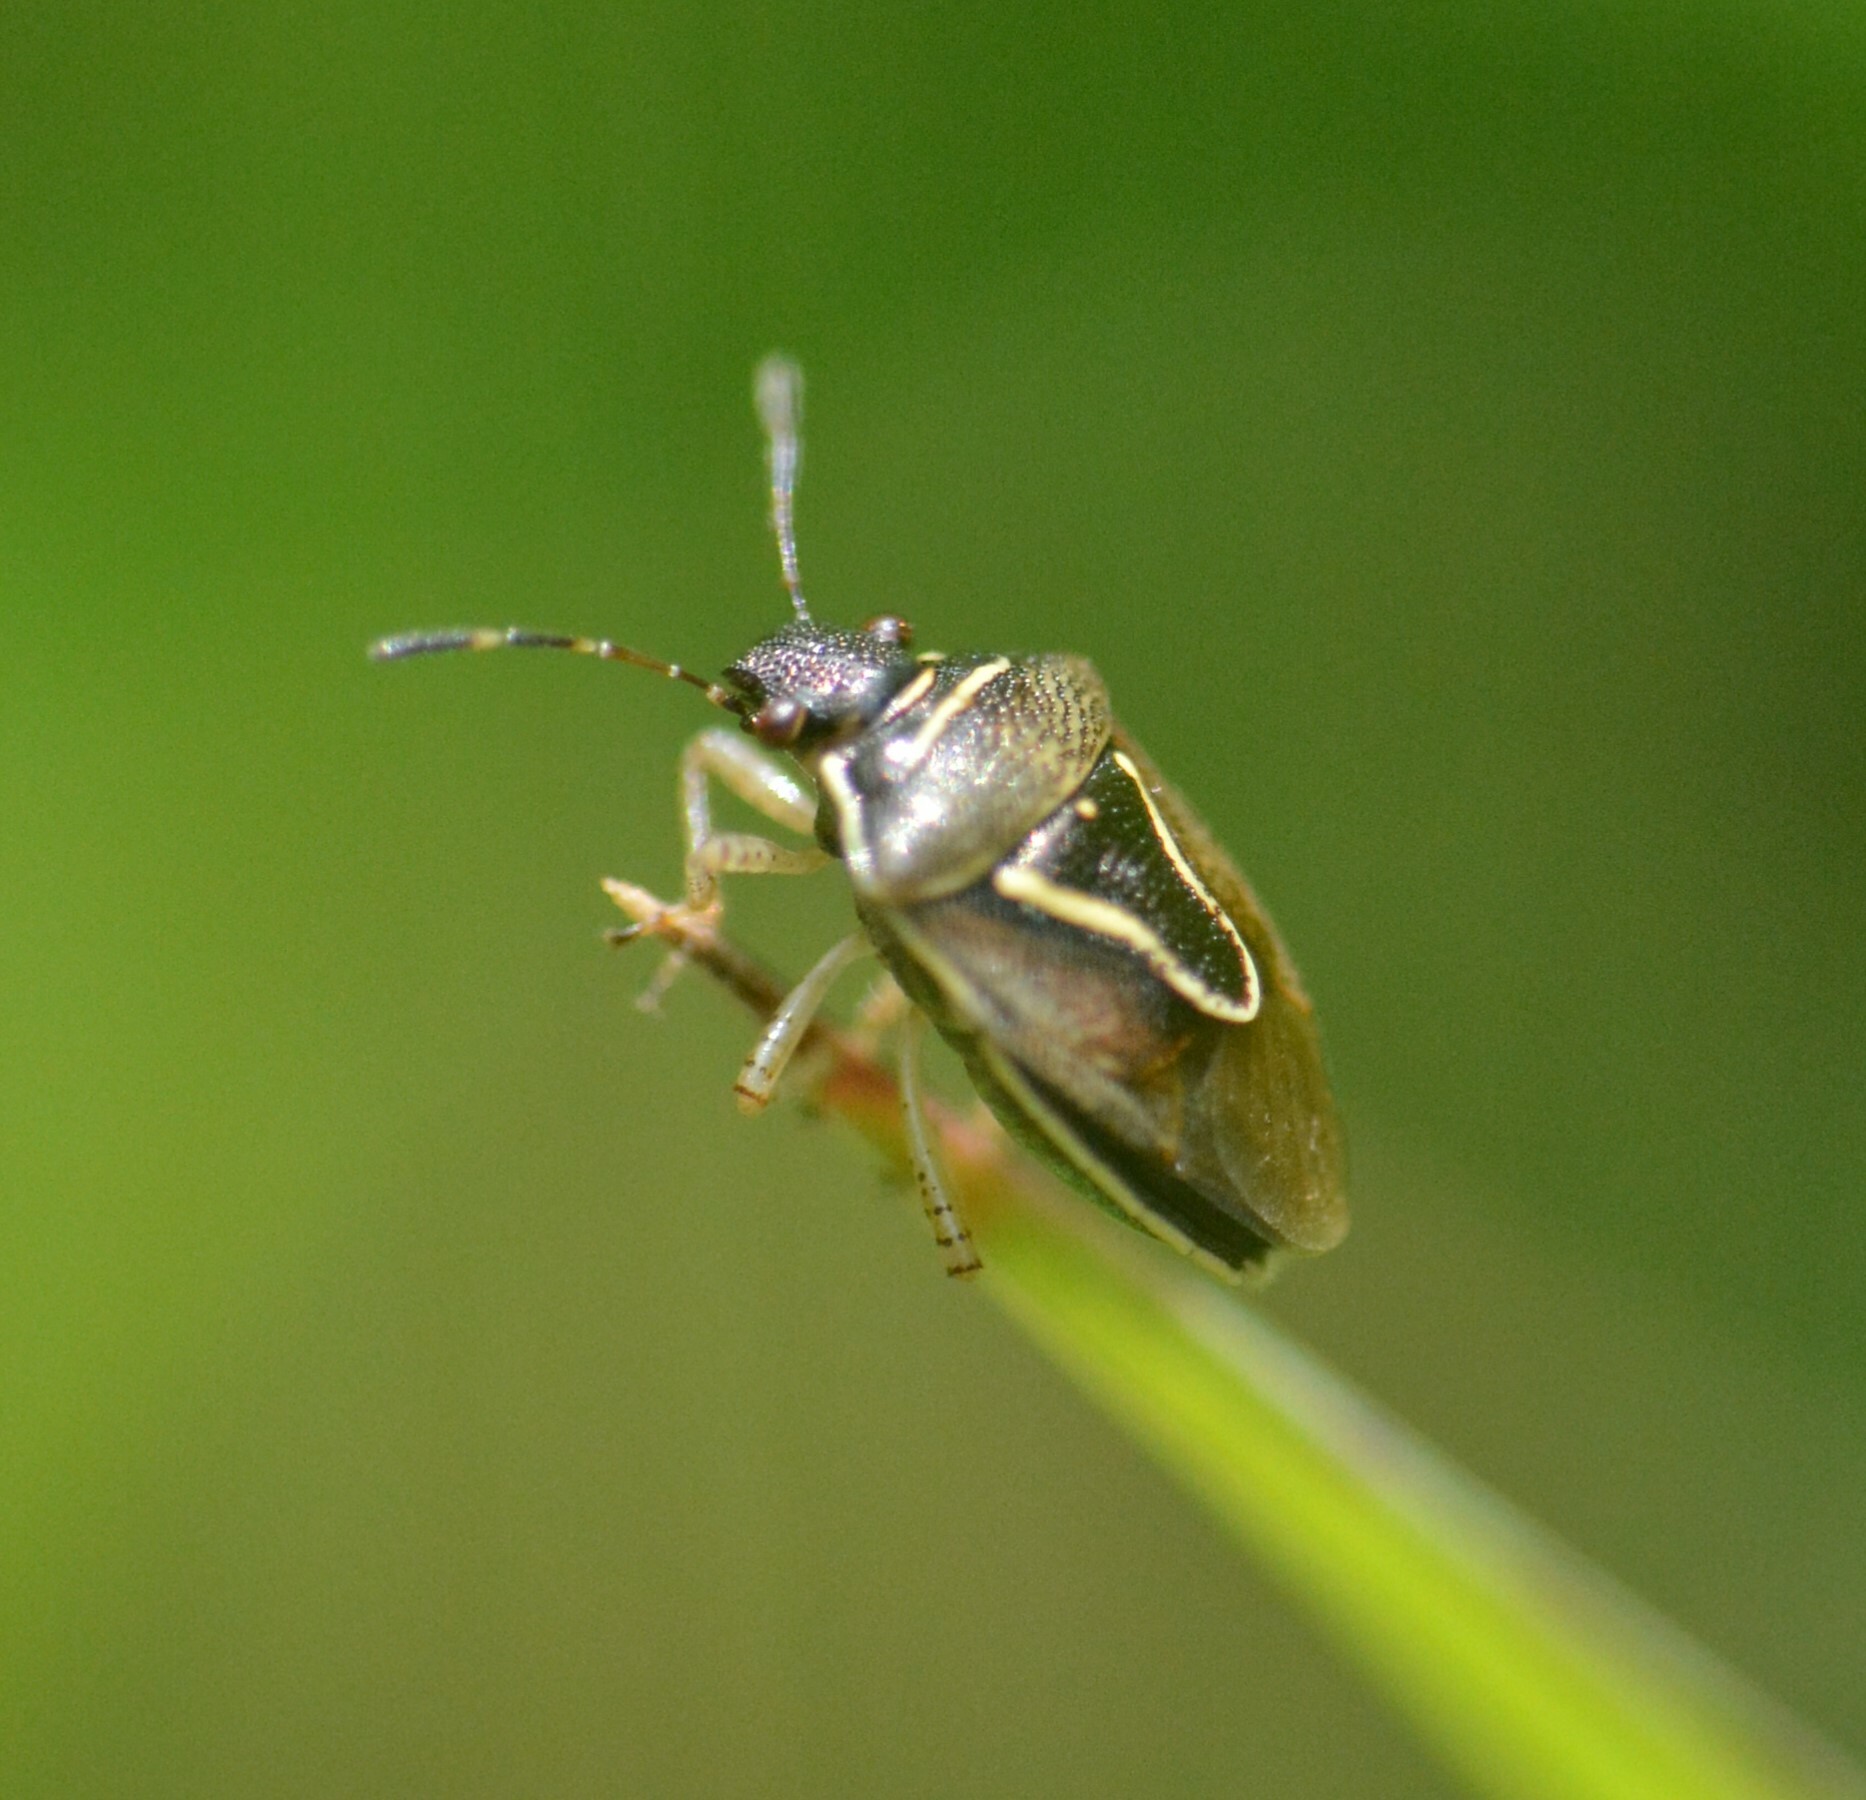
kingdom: Animalia
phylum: Arthropoda
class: Insecta
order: Hemiptera
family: Pentatomidae
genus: Mormidea
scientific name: Mormidea lugens
